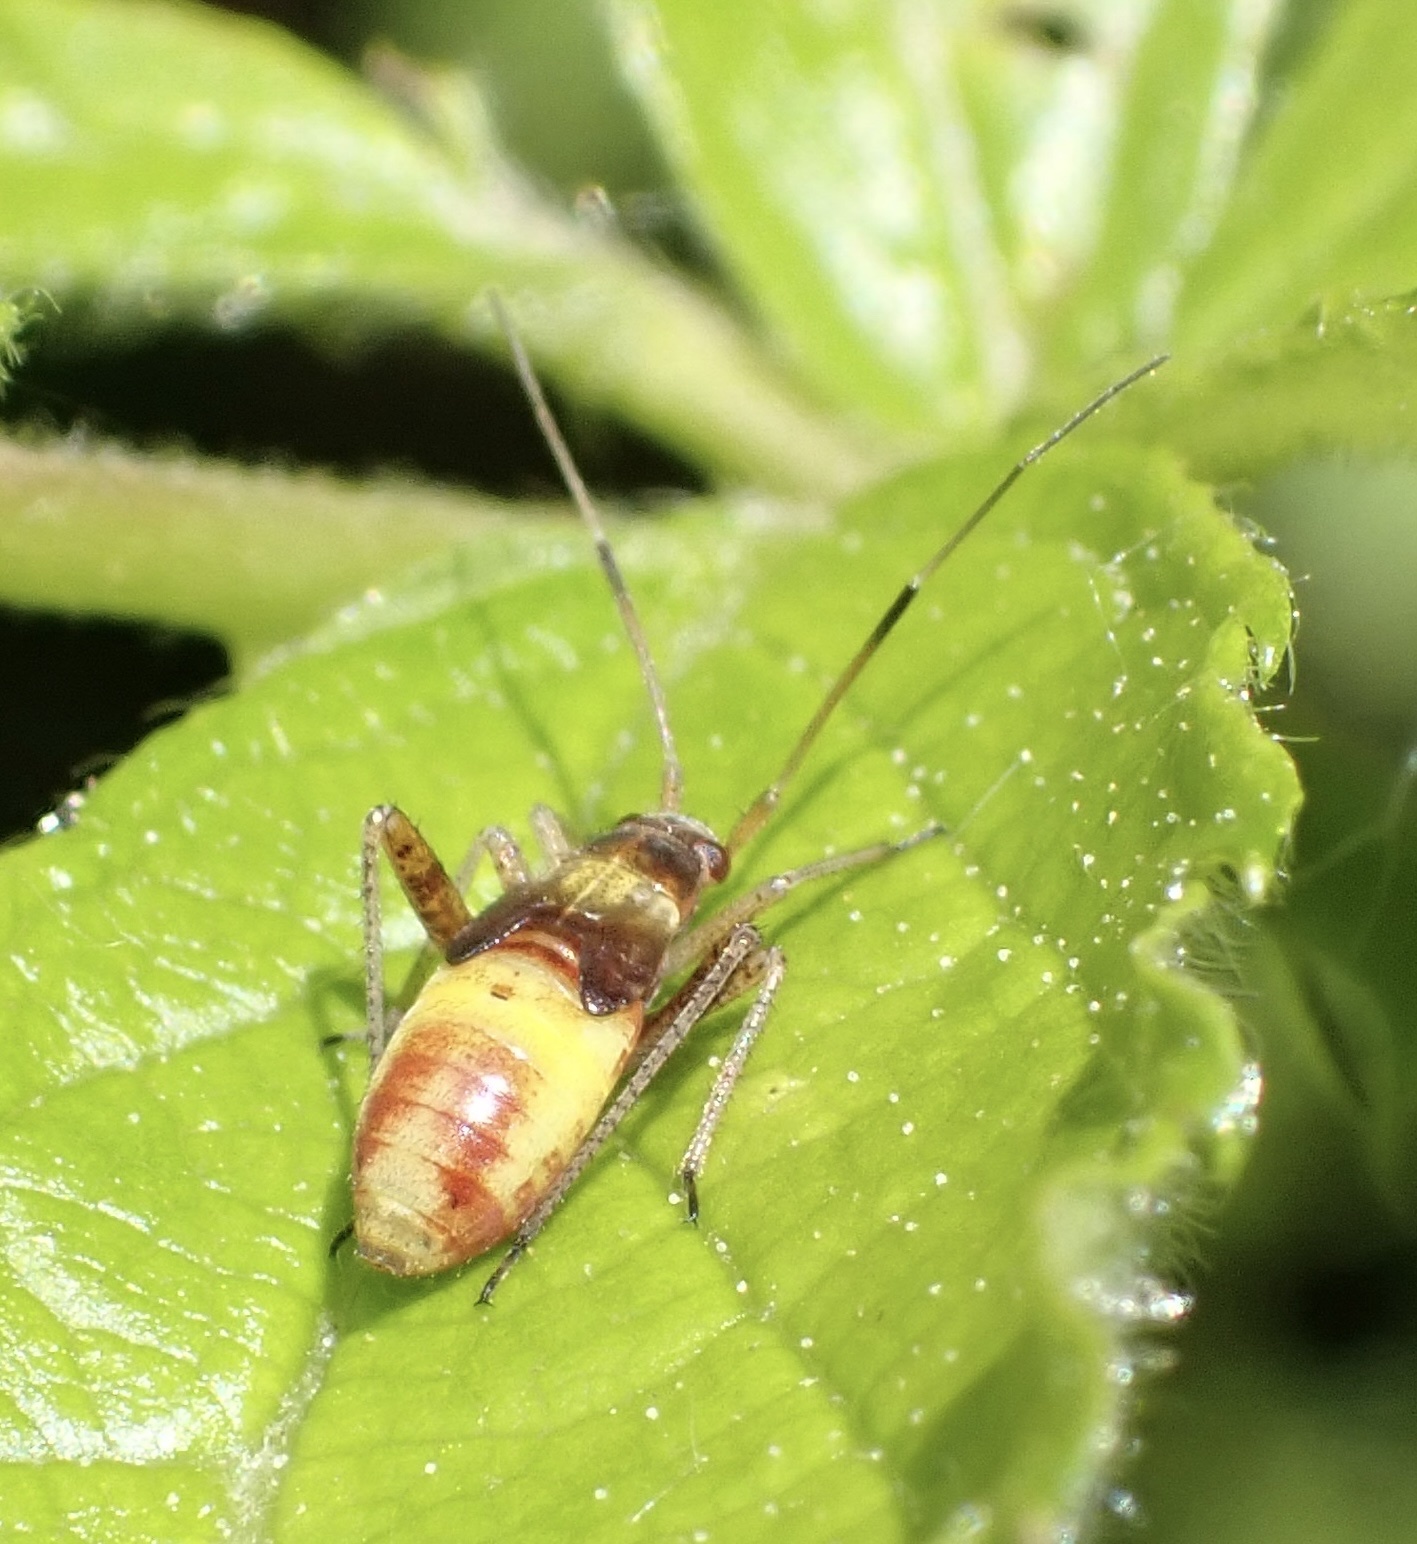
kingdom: Animalia
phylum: Arthropoda
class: Insecta
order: Hemiptera
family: Miridae
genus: Closterotomus
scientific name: Closterotomus fulvomaculatus
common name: Spotted plant bug
